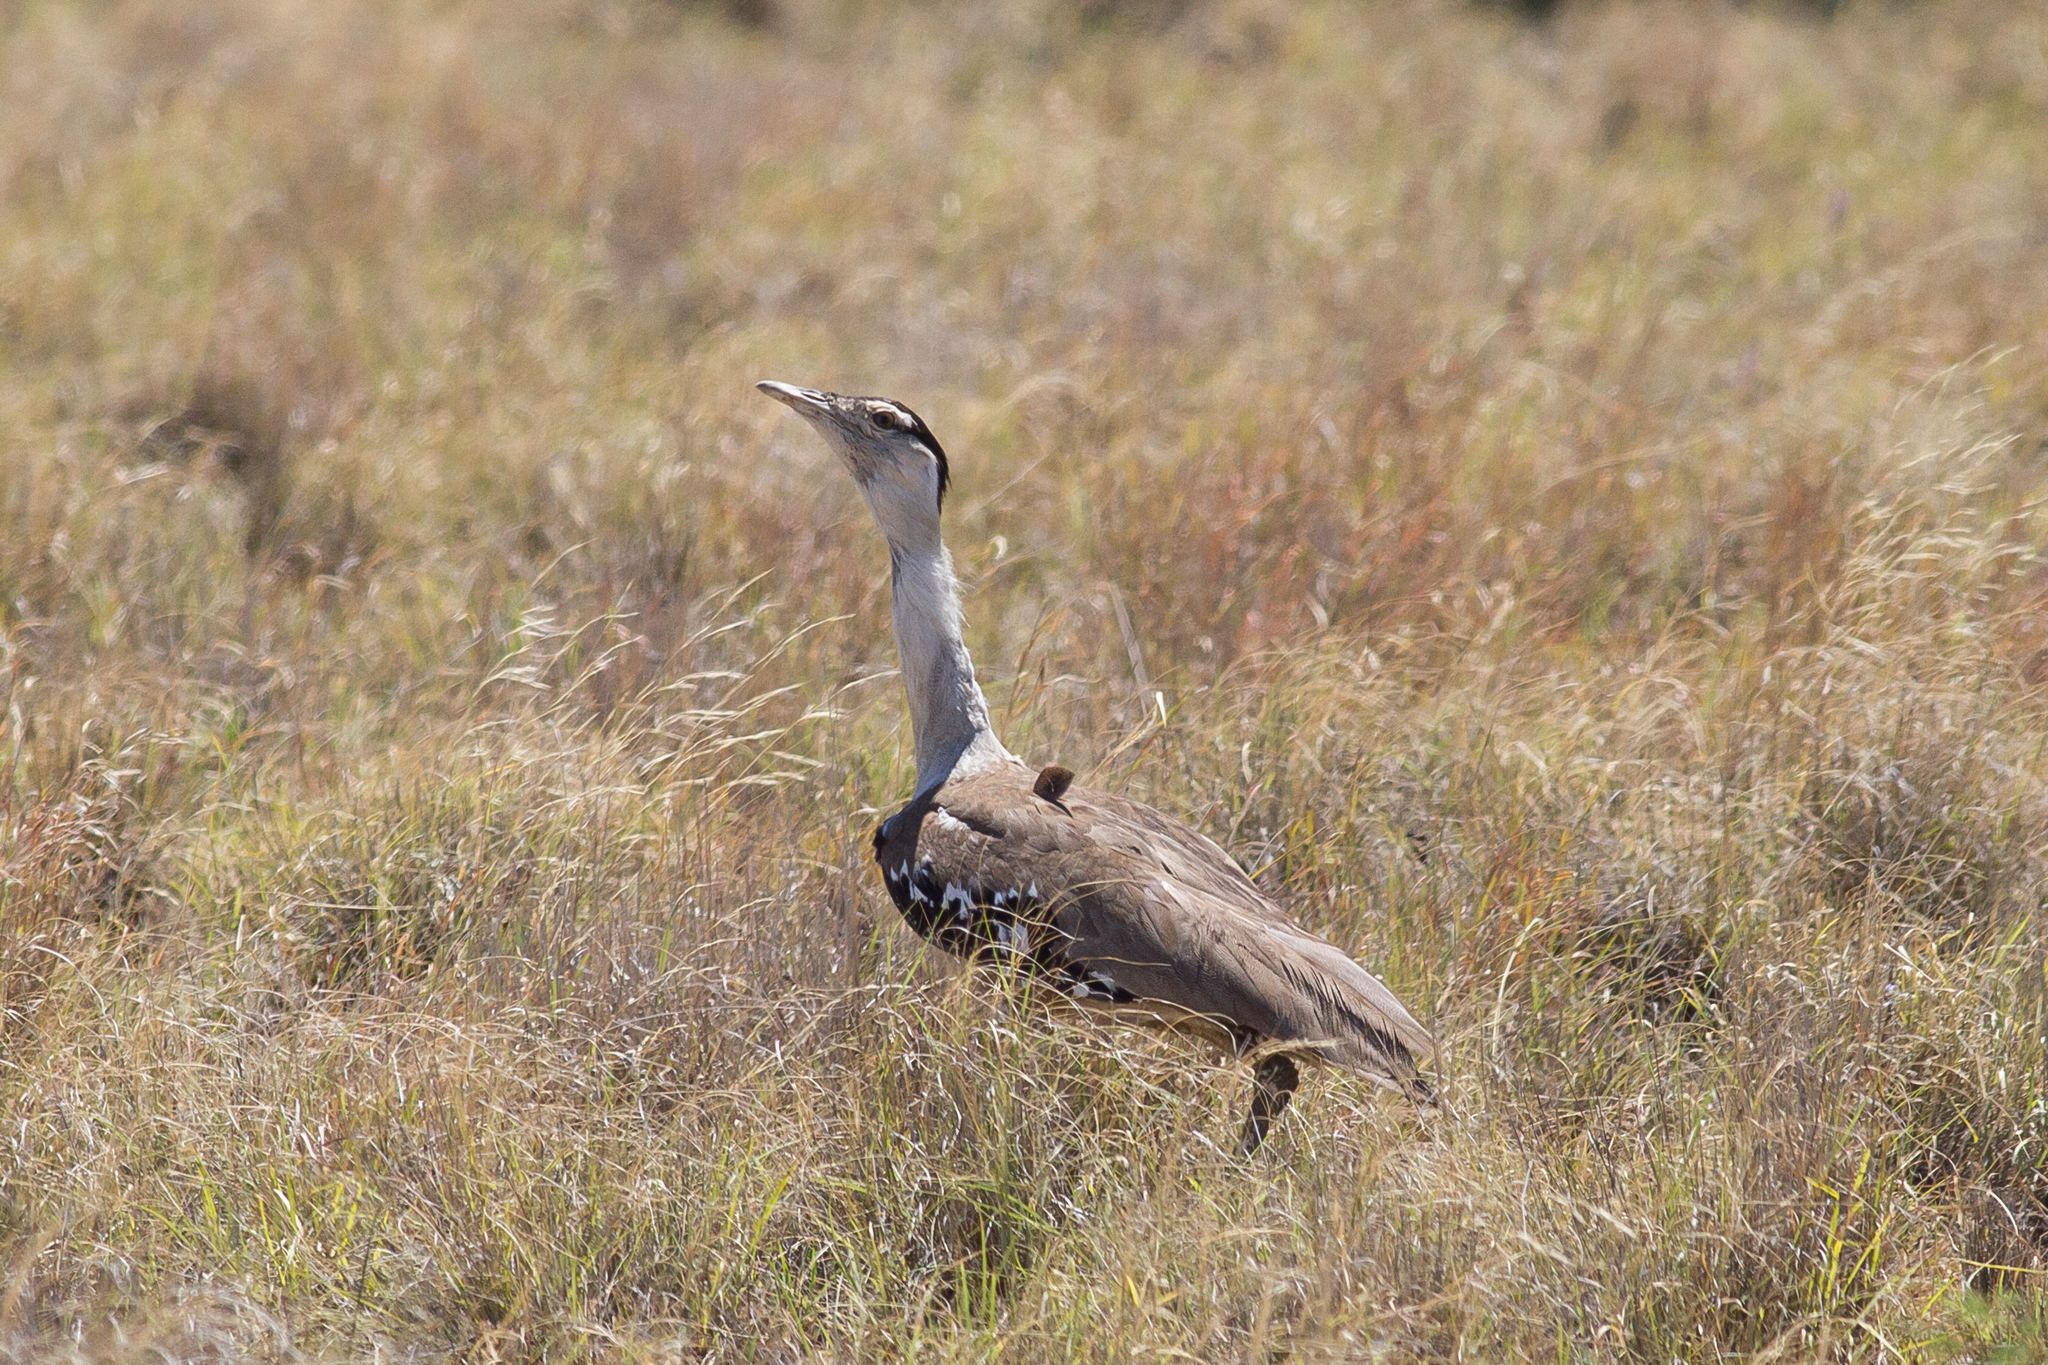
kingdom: Animalia
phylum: Chordata
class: Aves
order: Otidiformes
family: Otididae
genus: Ardeotis
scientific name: Ardeotis australis
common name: Australian bustard
